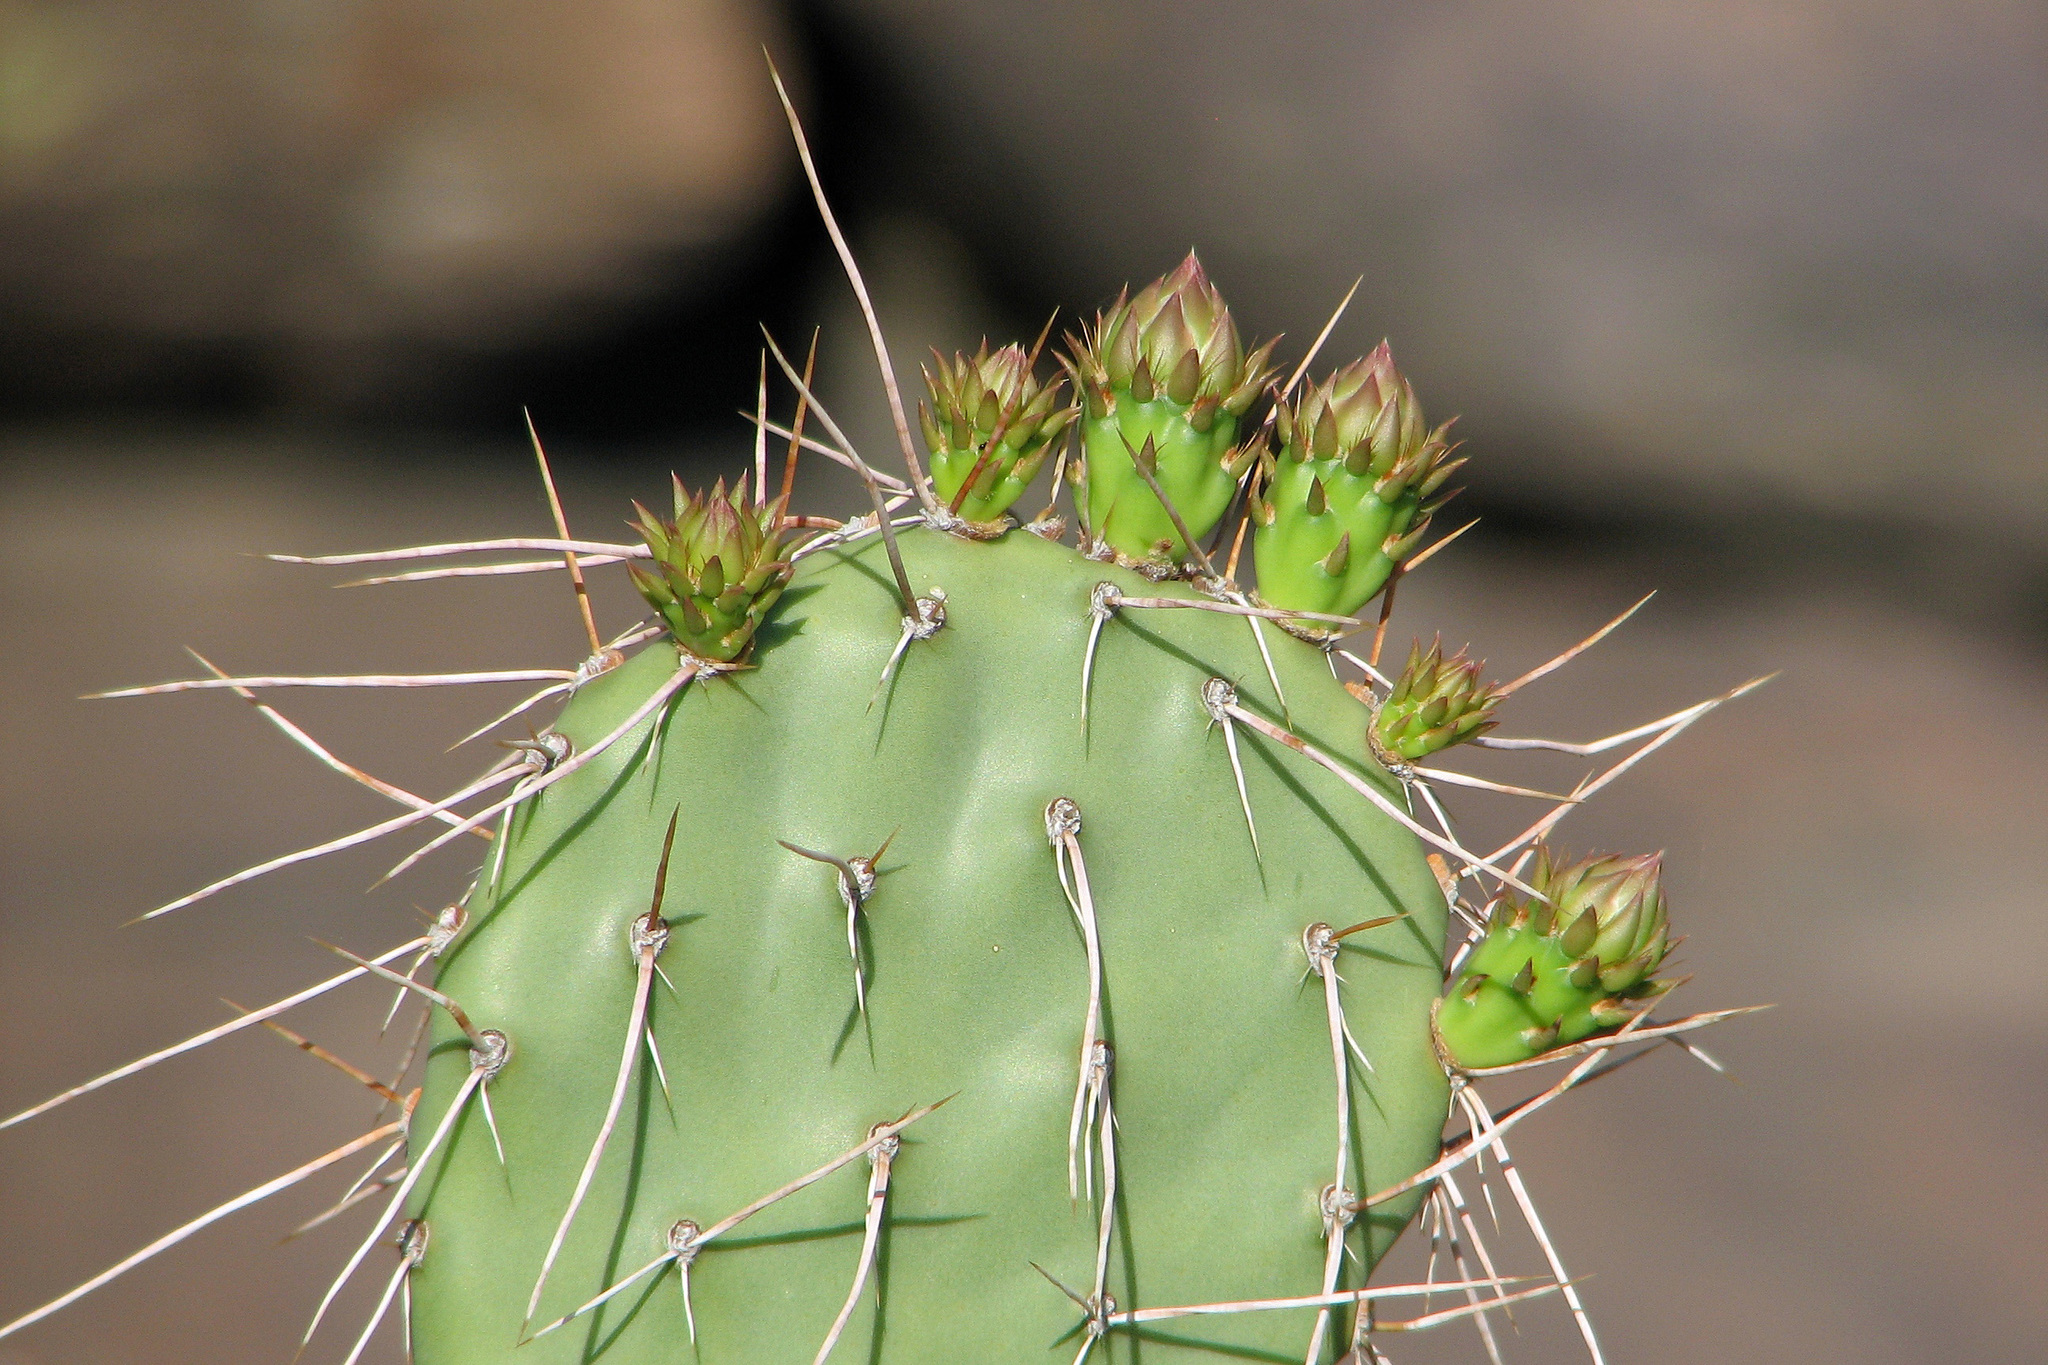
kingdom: Plantae
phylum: Tracheophyta
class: Magnoliopsida
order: Caryophyllales
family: Cactaceae
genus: Opuntia
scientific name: Opuntia sulphurea
